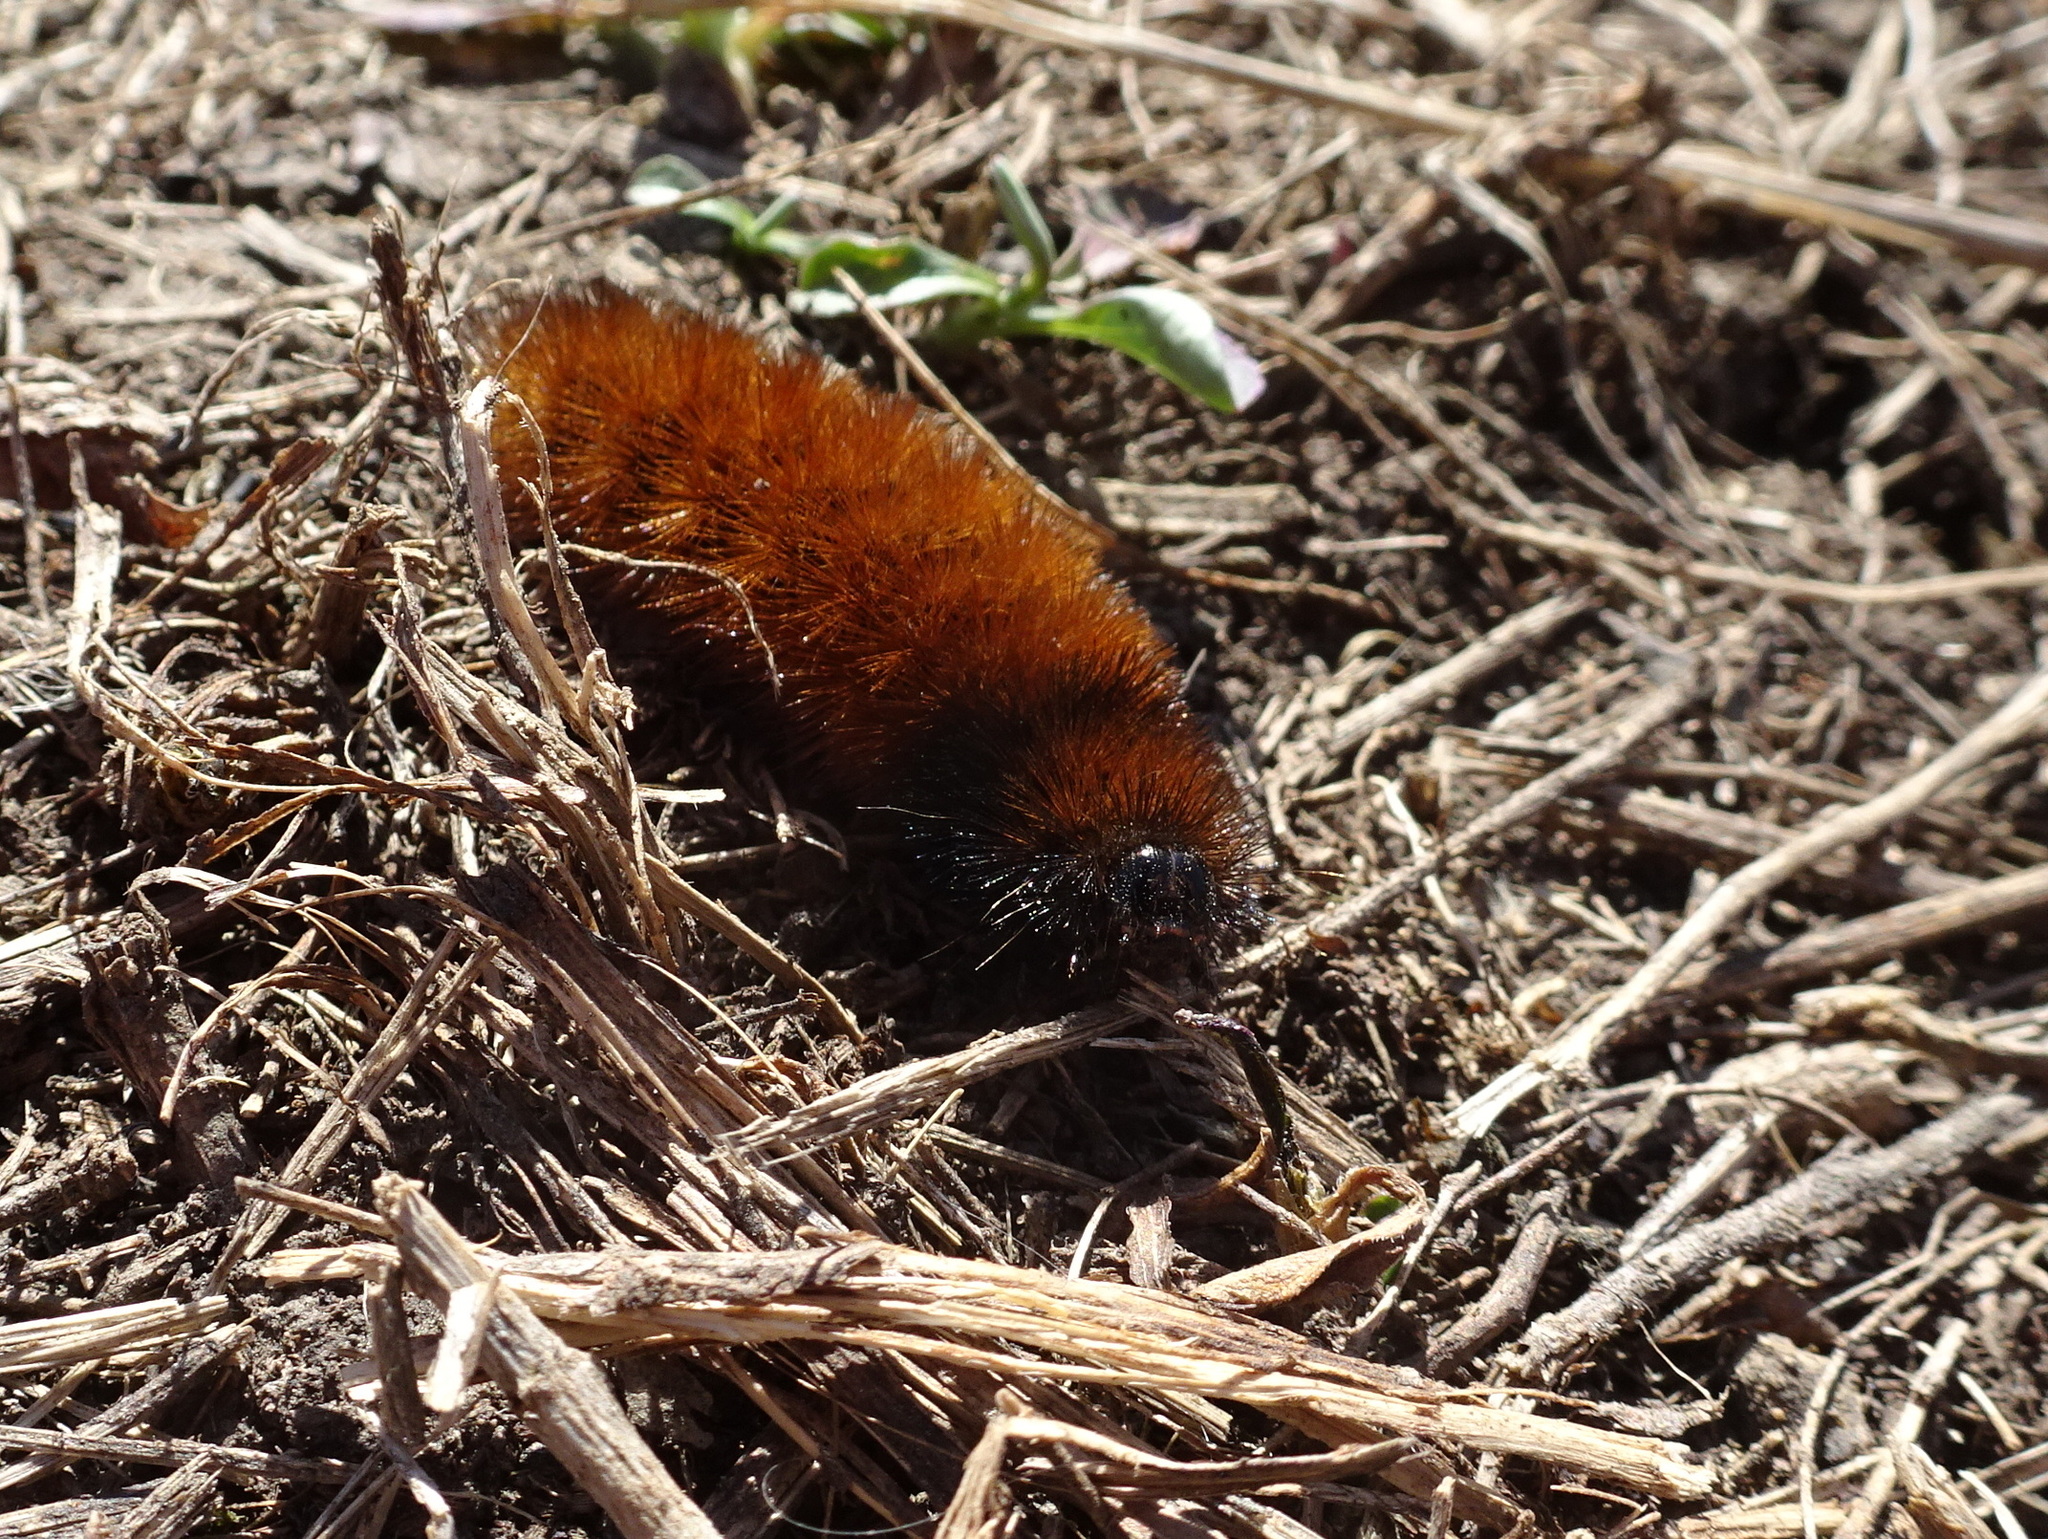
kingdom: Animalia
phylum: Arthropoda
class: Insecta
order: Lepidoptera
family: Erebidae
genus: Pyrrharctia
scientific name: Pyrrharctia isabella
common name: Isabella tiger moth
